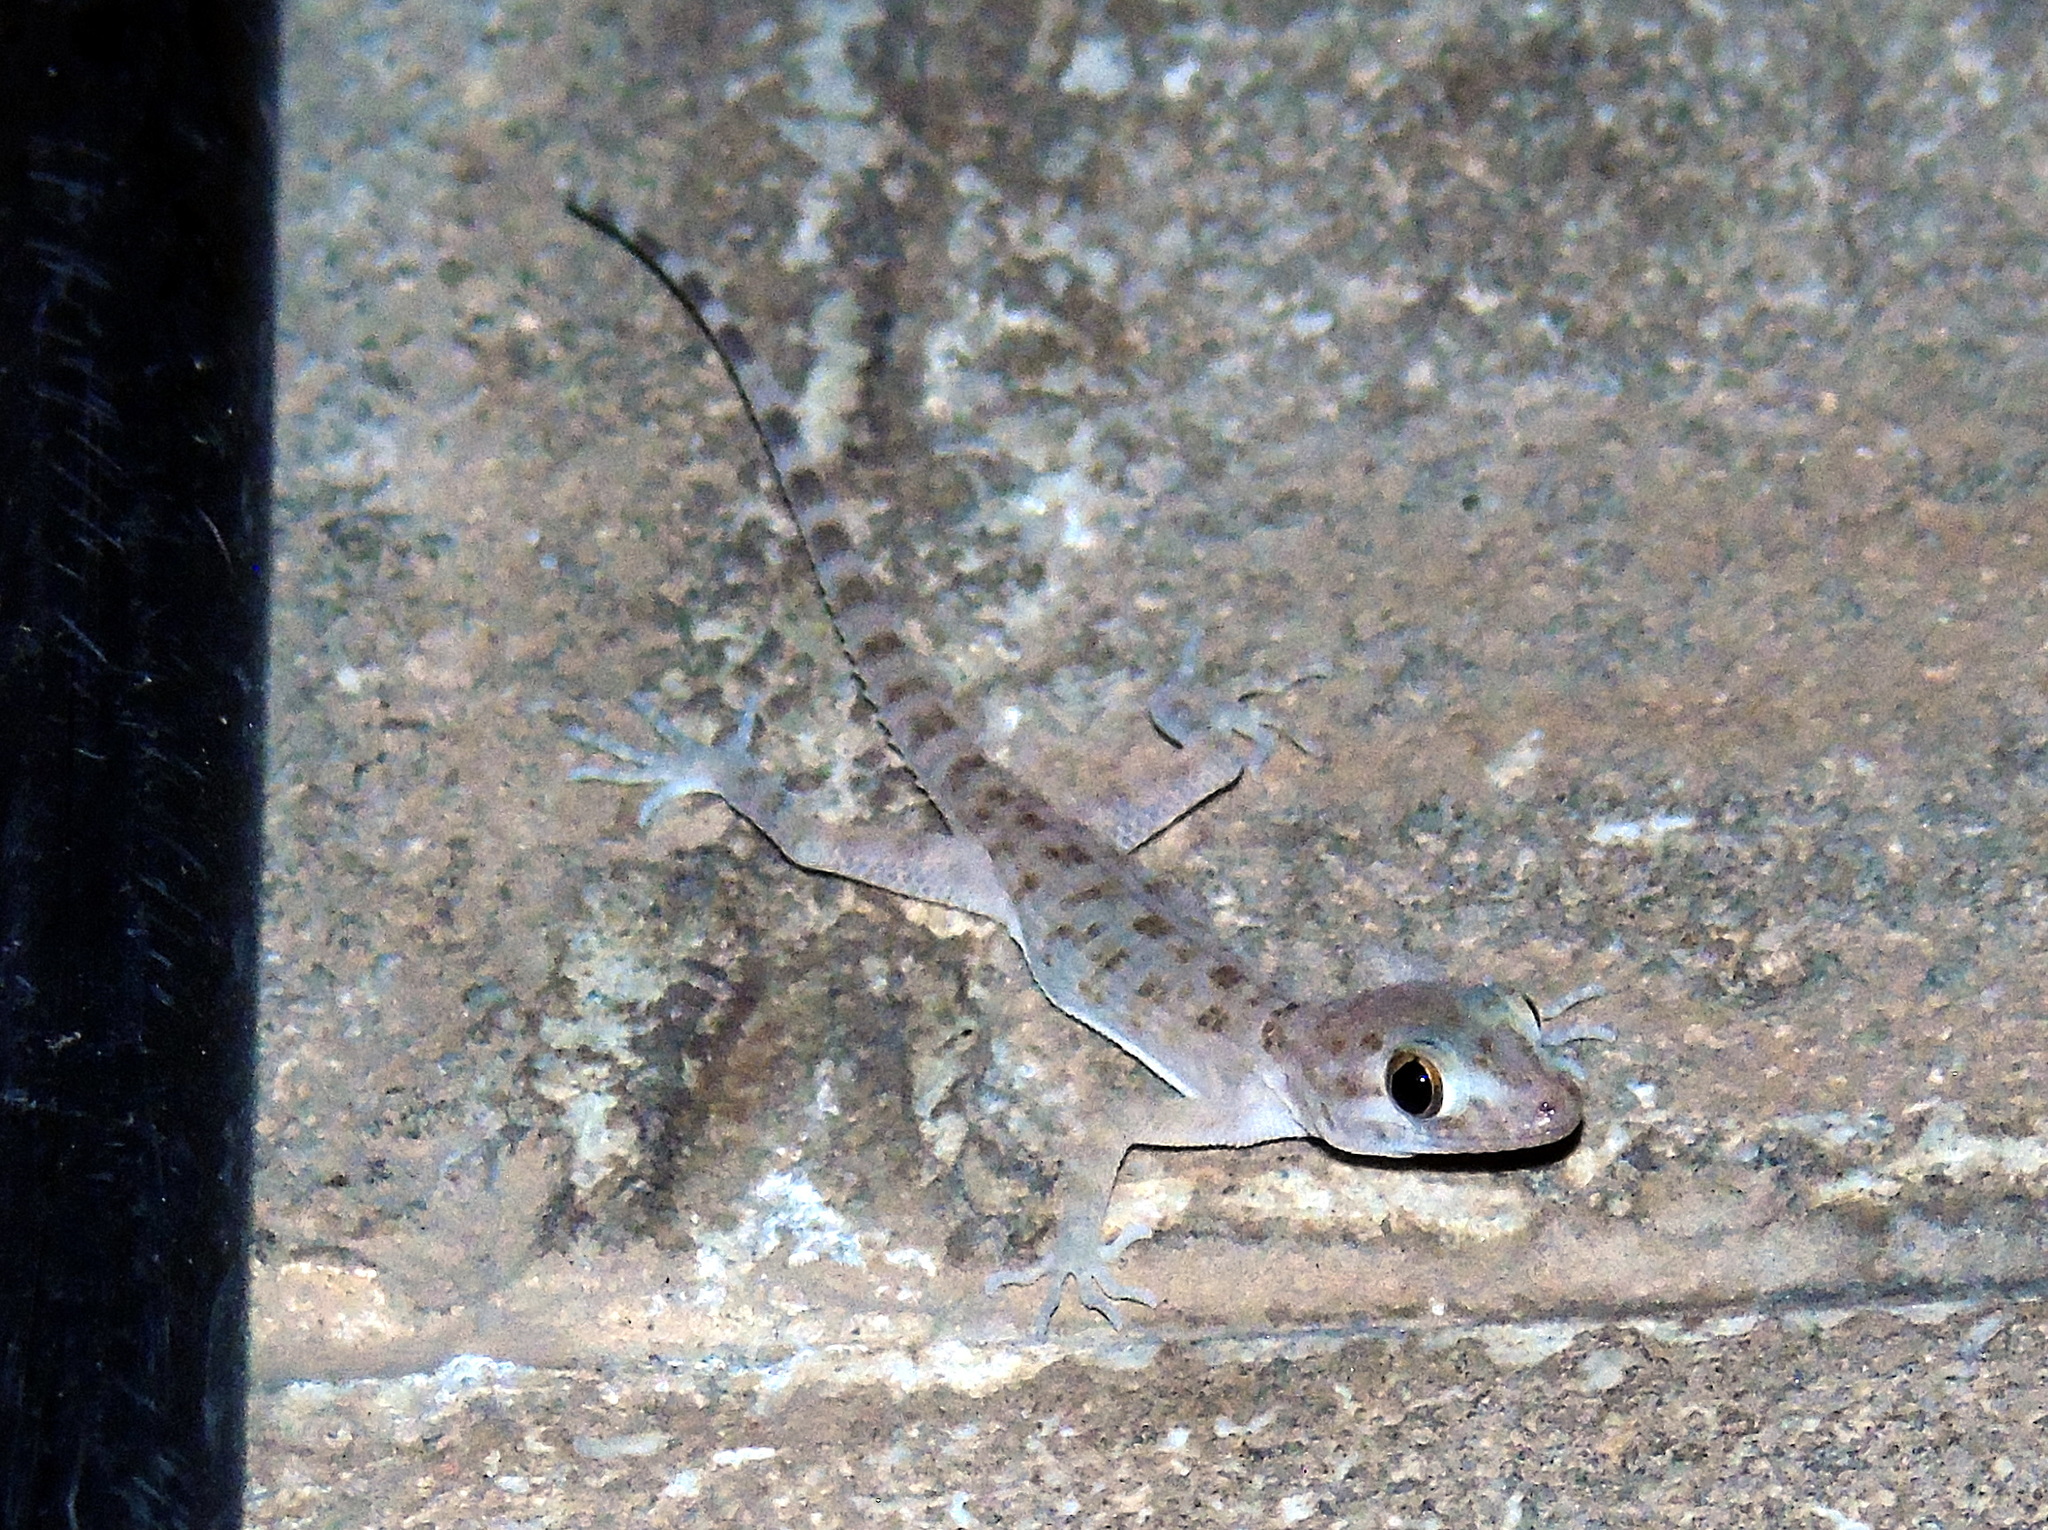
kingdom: Animalia
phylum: Chordata
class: Squamata
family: Gekkonidae
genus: Cyrtopodion
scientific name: Cyrtopodion scabrum
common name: Rough-tailed gecko
